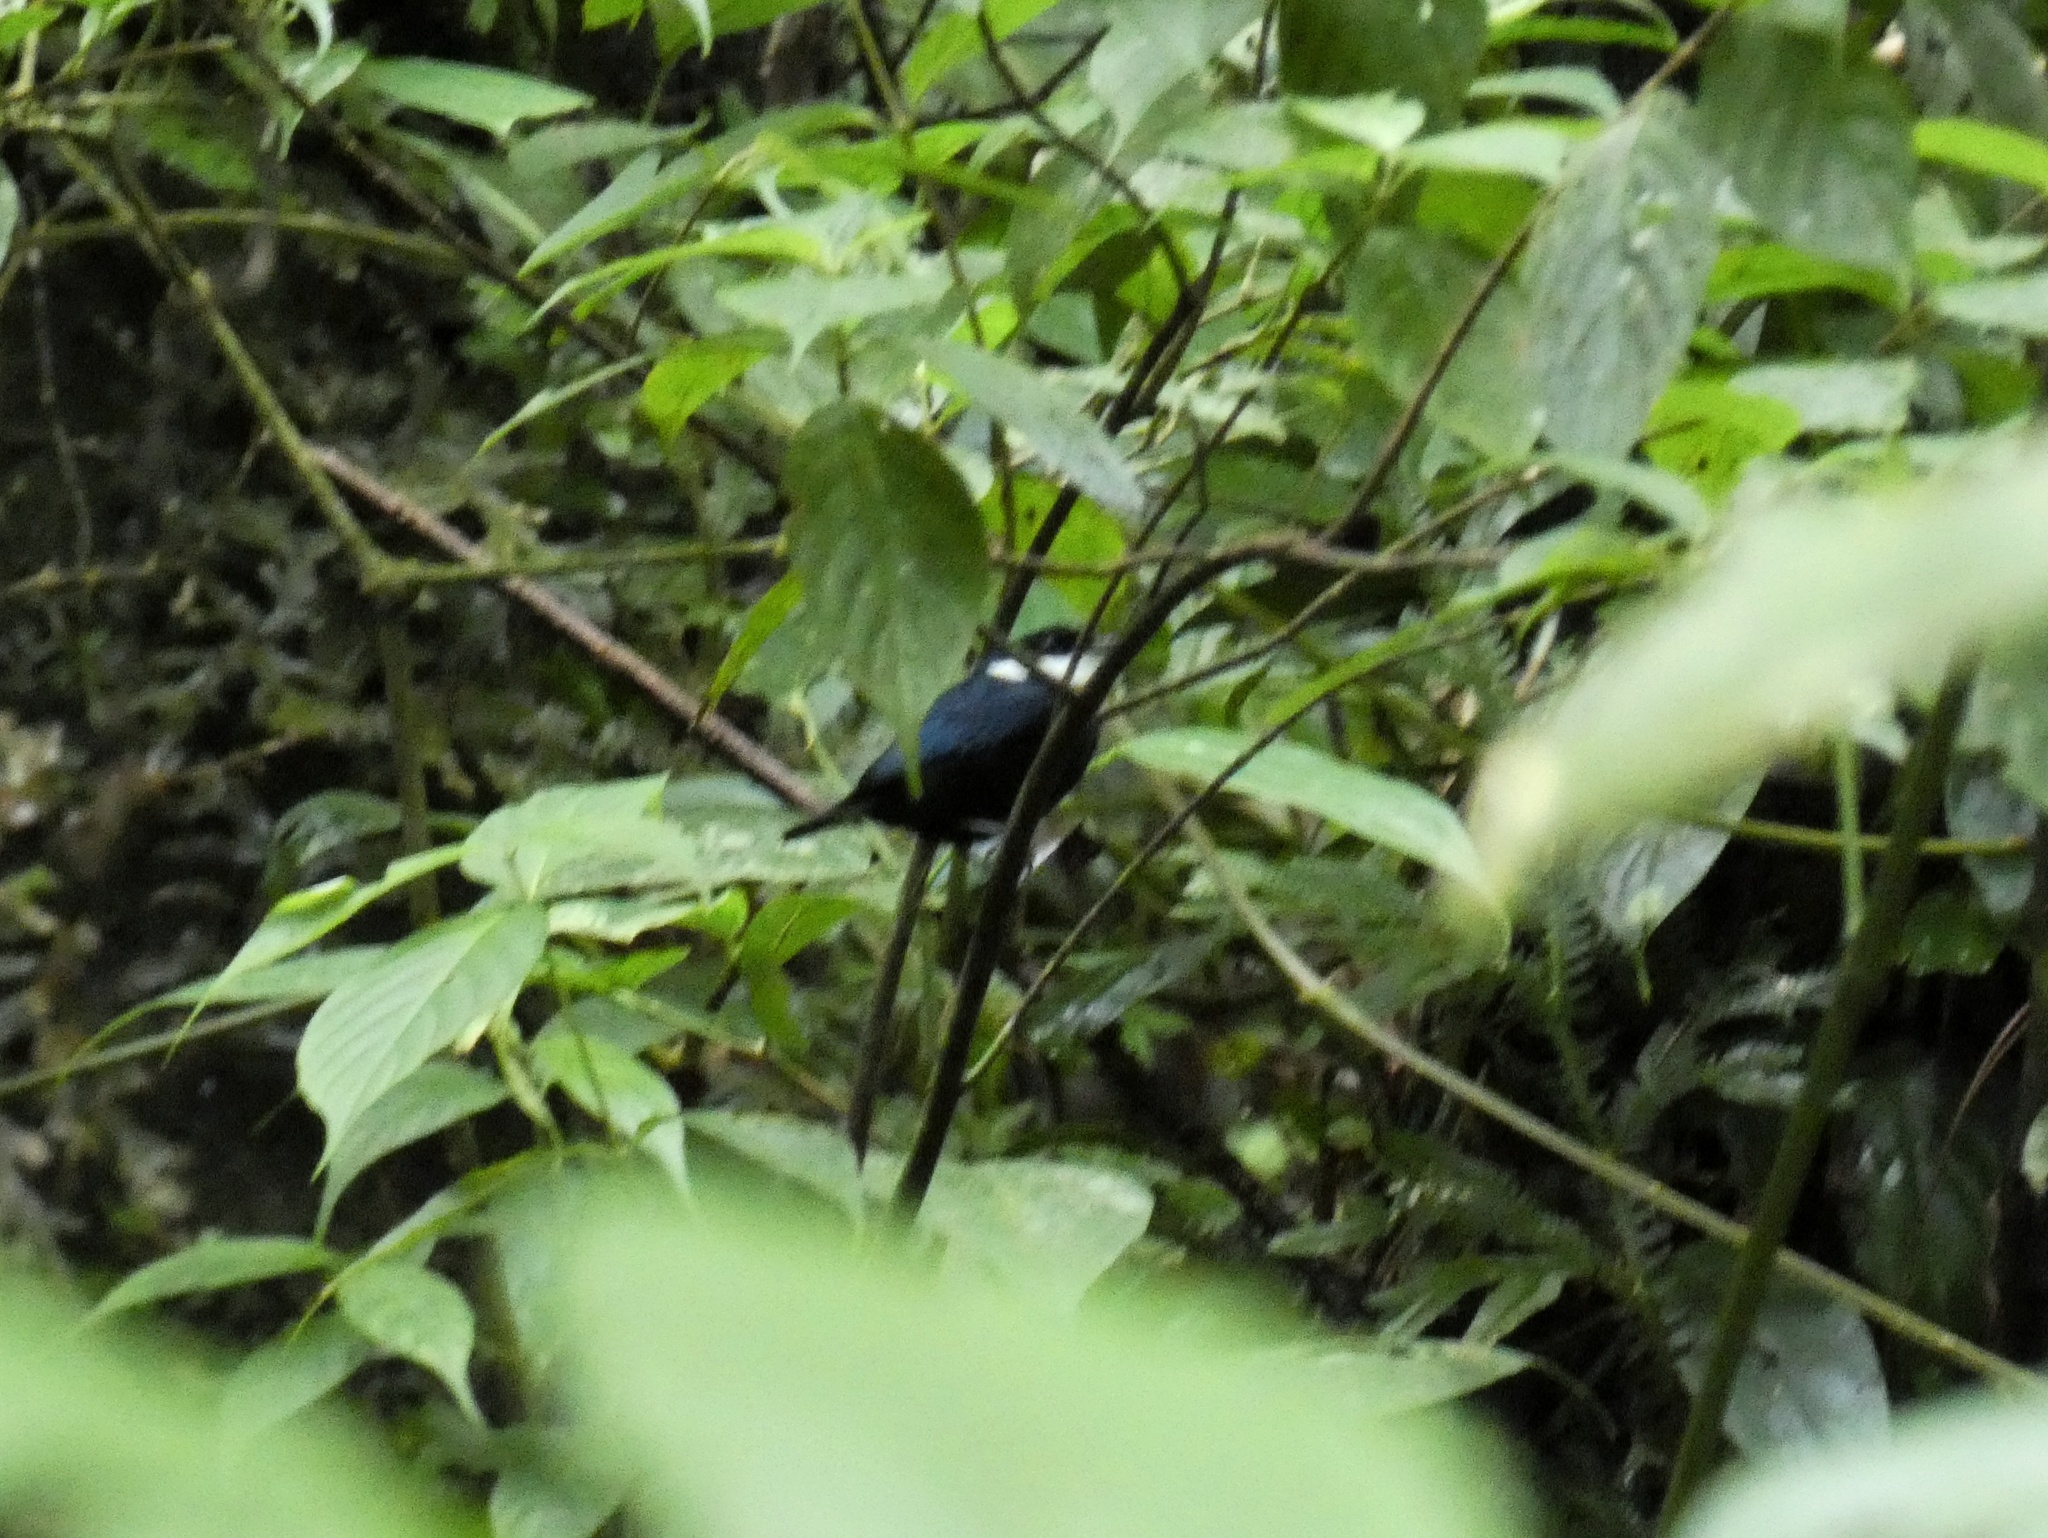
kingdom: Animalia
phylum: Chordata
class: Aves
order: Passeriformes
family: Pipridae
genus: Corapipo
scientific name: Corapipo altera
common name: White-ruffed manakin
